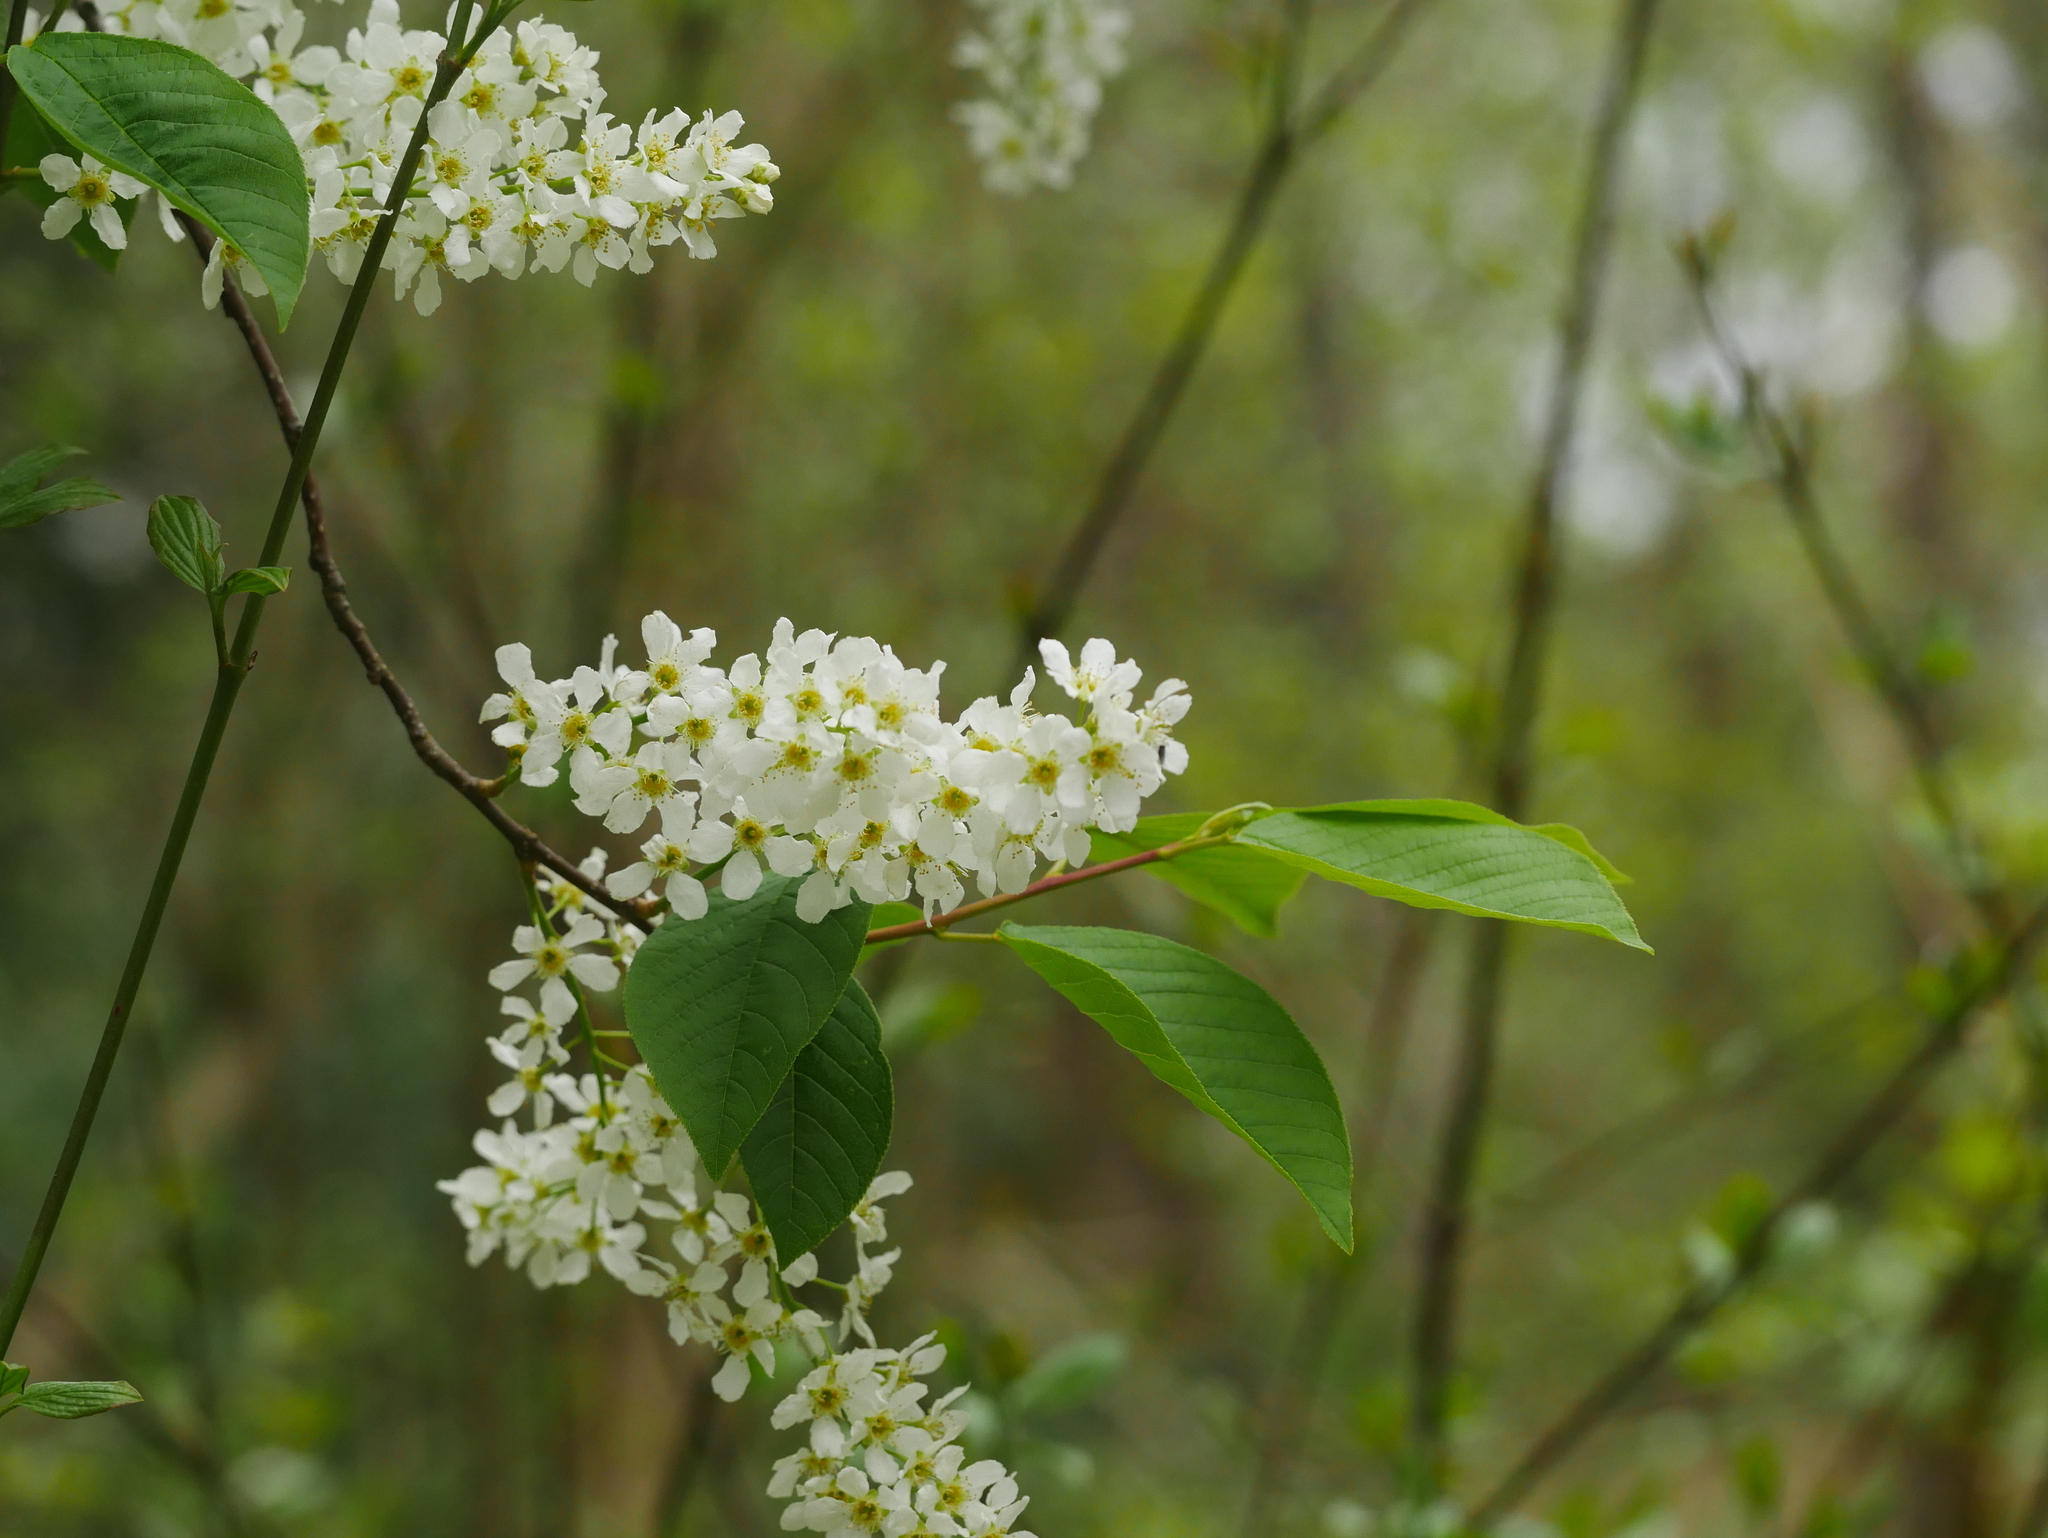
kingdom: Plantae
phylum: Tracheophyta
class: Magnoliopsida
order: Rosales
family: Rosaceae
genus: Prunus
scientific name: Prunus padus
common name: Bird cherry
